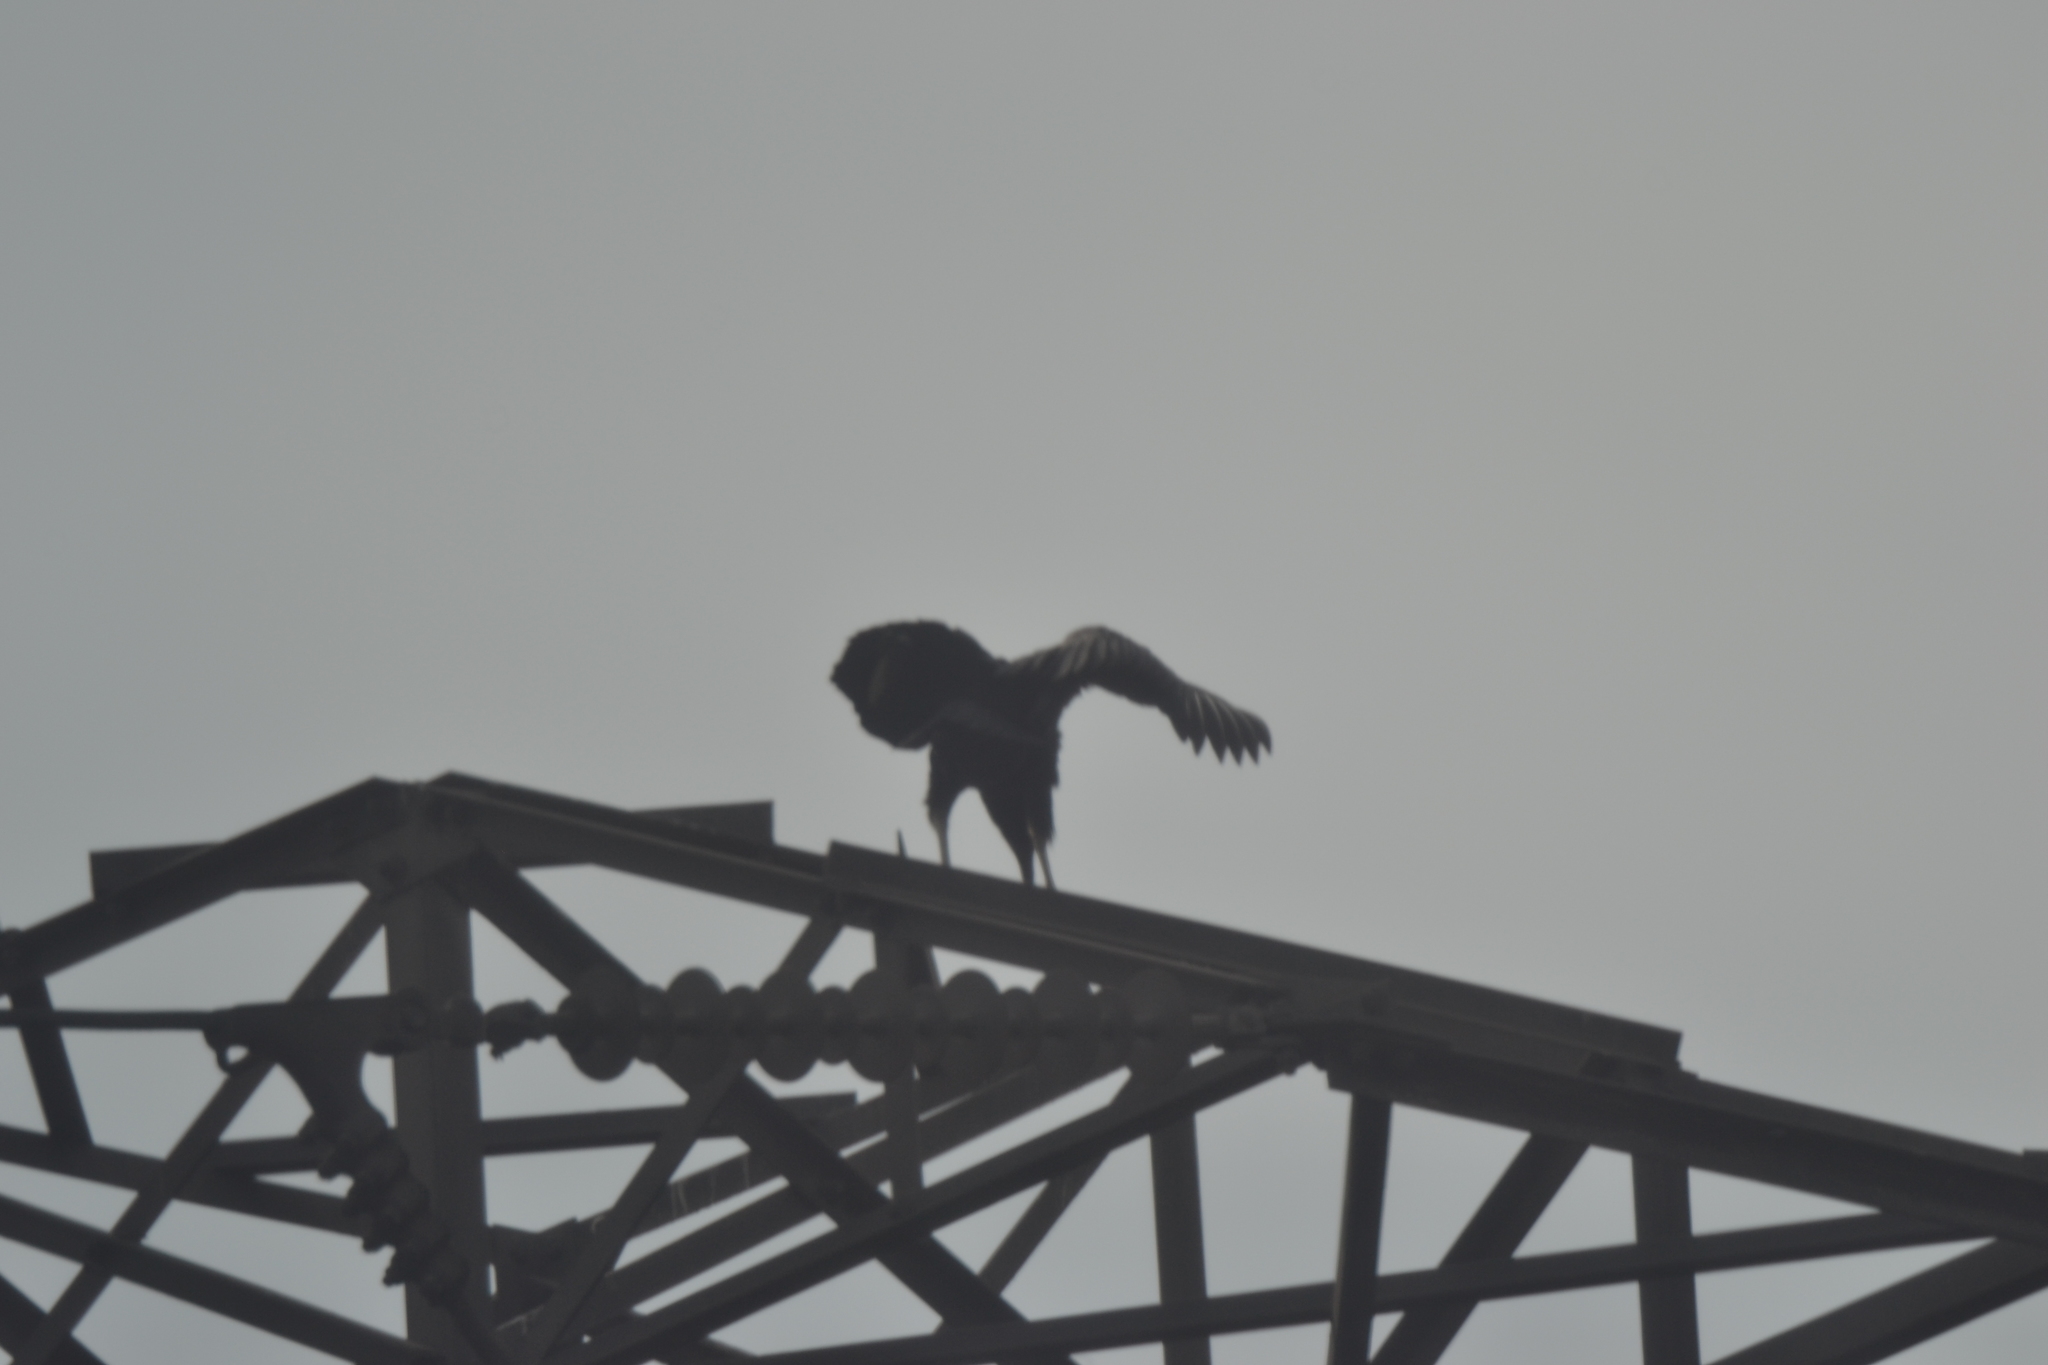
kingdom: Animalia
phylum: Chordata
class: Aves
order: Accipitriformes
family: Cathartidae
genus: Coragyps
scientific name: Coragyps atratus
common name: Black vulture
